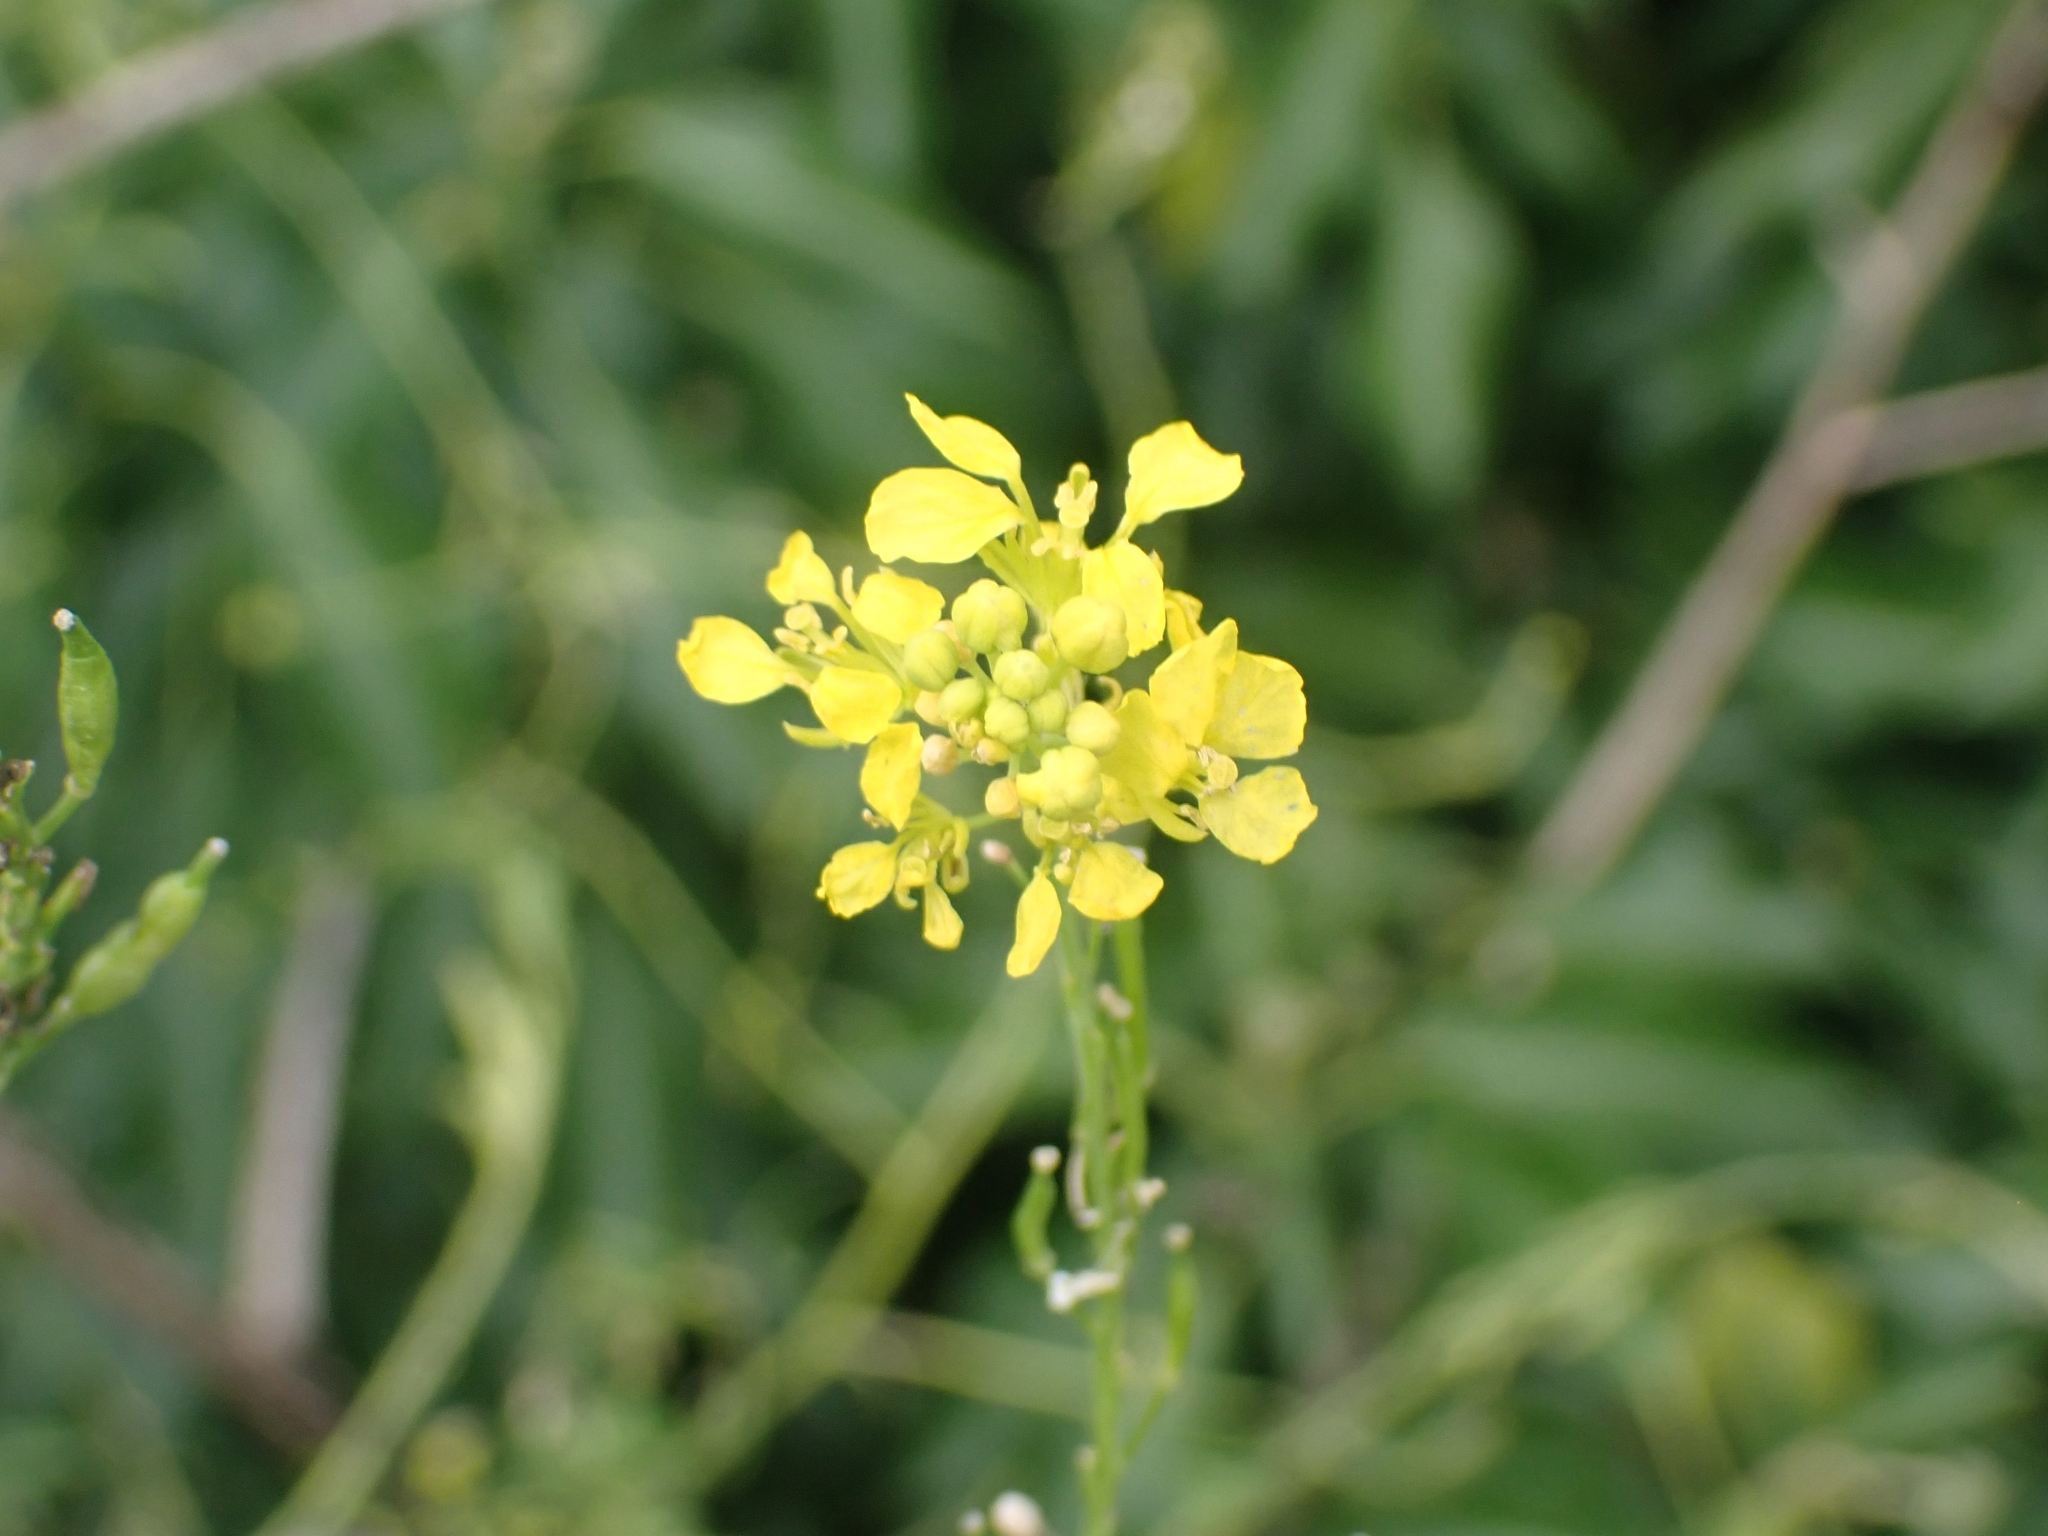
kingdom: Plantae
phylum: Tracheophyta
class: Magnoliopsida
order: Brassicales
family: Brassicaceae
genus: Brassica
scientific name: Brassica nigra
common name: Black mustard
